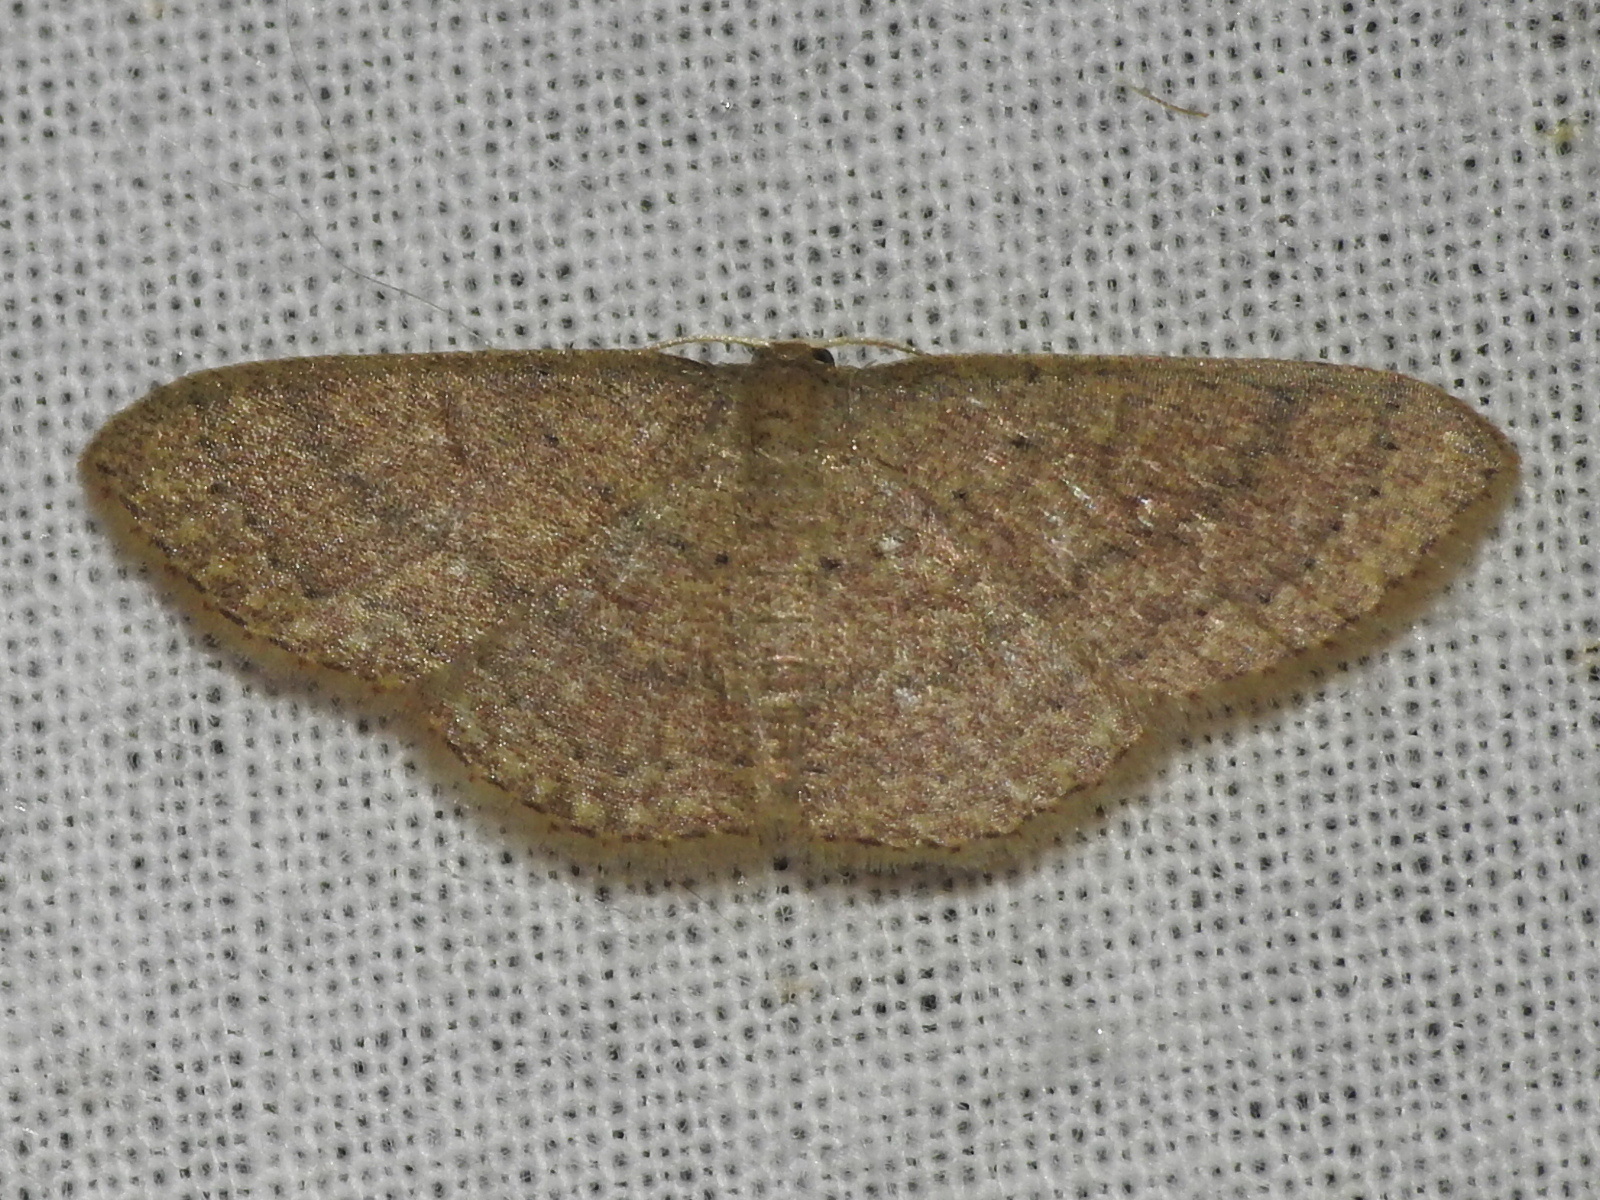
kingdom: Animalia
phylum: Arthropoda
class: Insecta
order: Lepidoptera
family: Geometridae
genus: Pleuroprucha
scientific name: Pleuroprucha insulsaria
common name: Common tan wave
